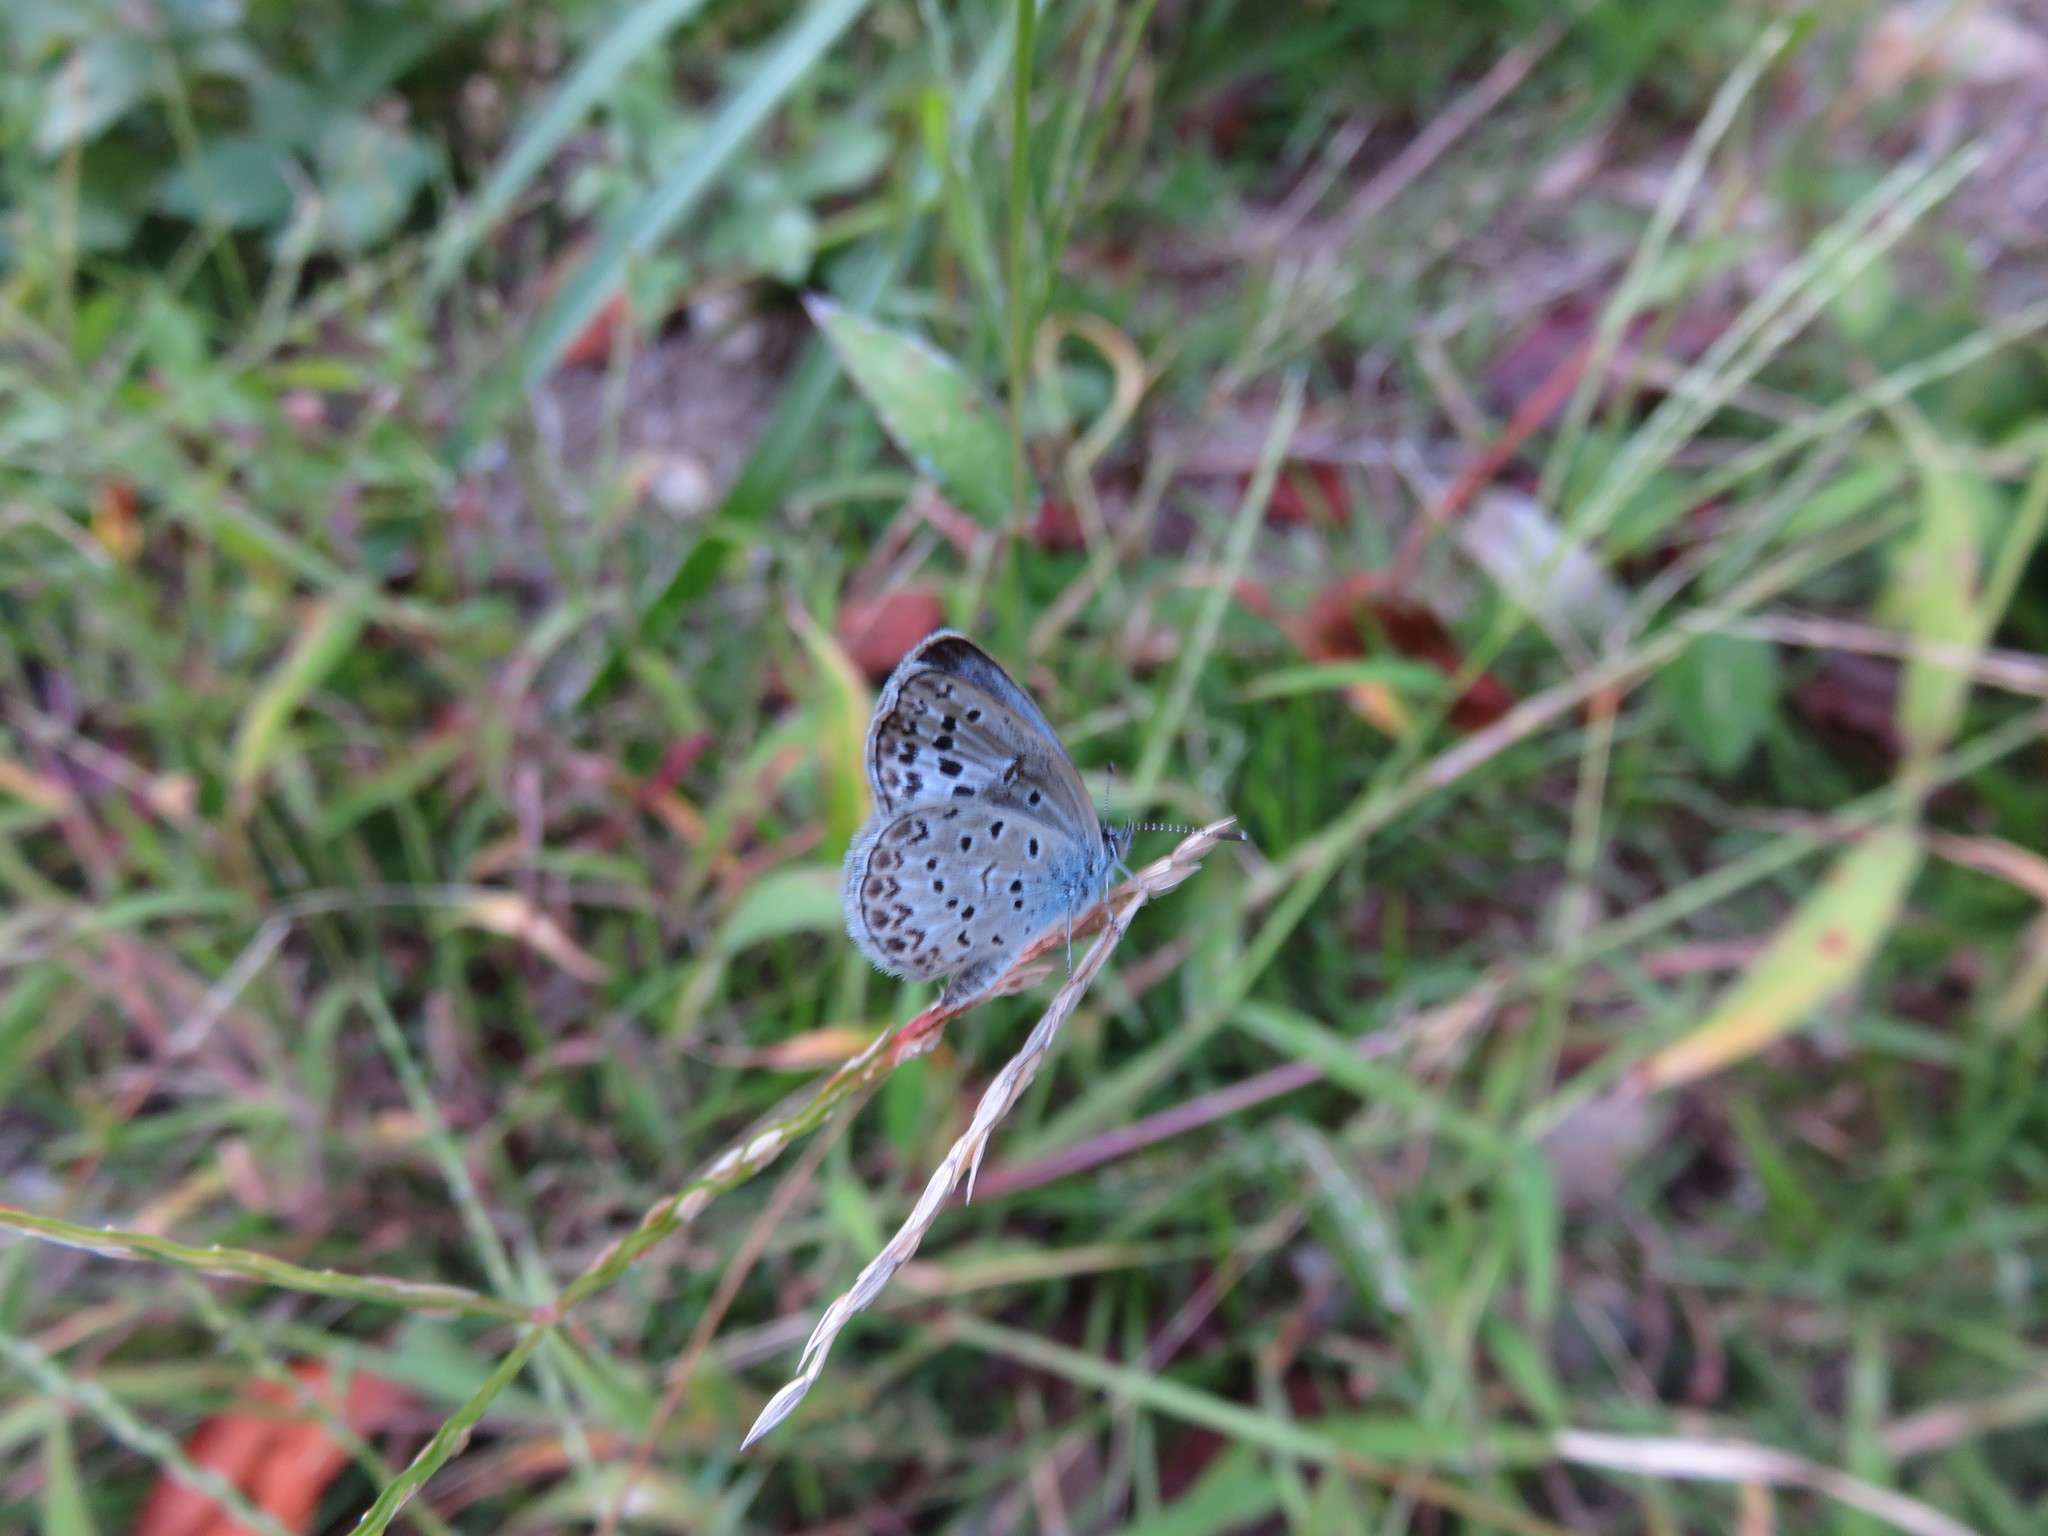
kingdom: Animalia
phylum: Arthropoda
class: Insecta
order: Lepidoptera
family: Lycaenidae
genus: Pseudozizeeria
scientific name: Pseudozizeeria maha
